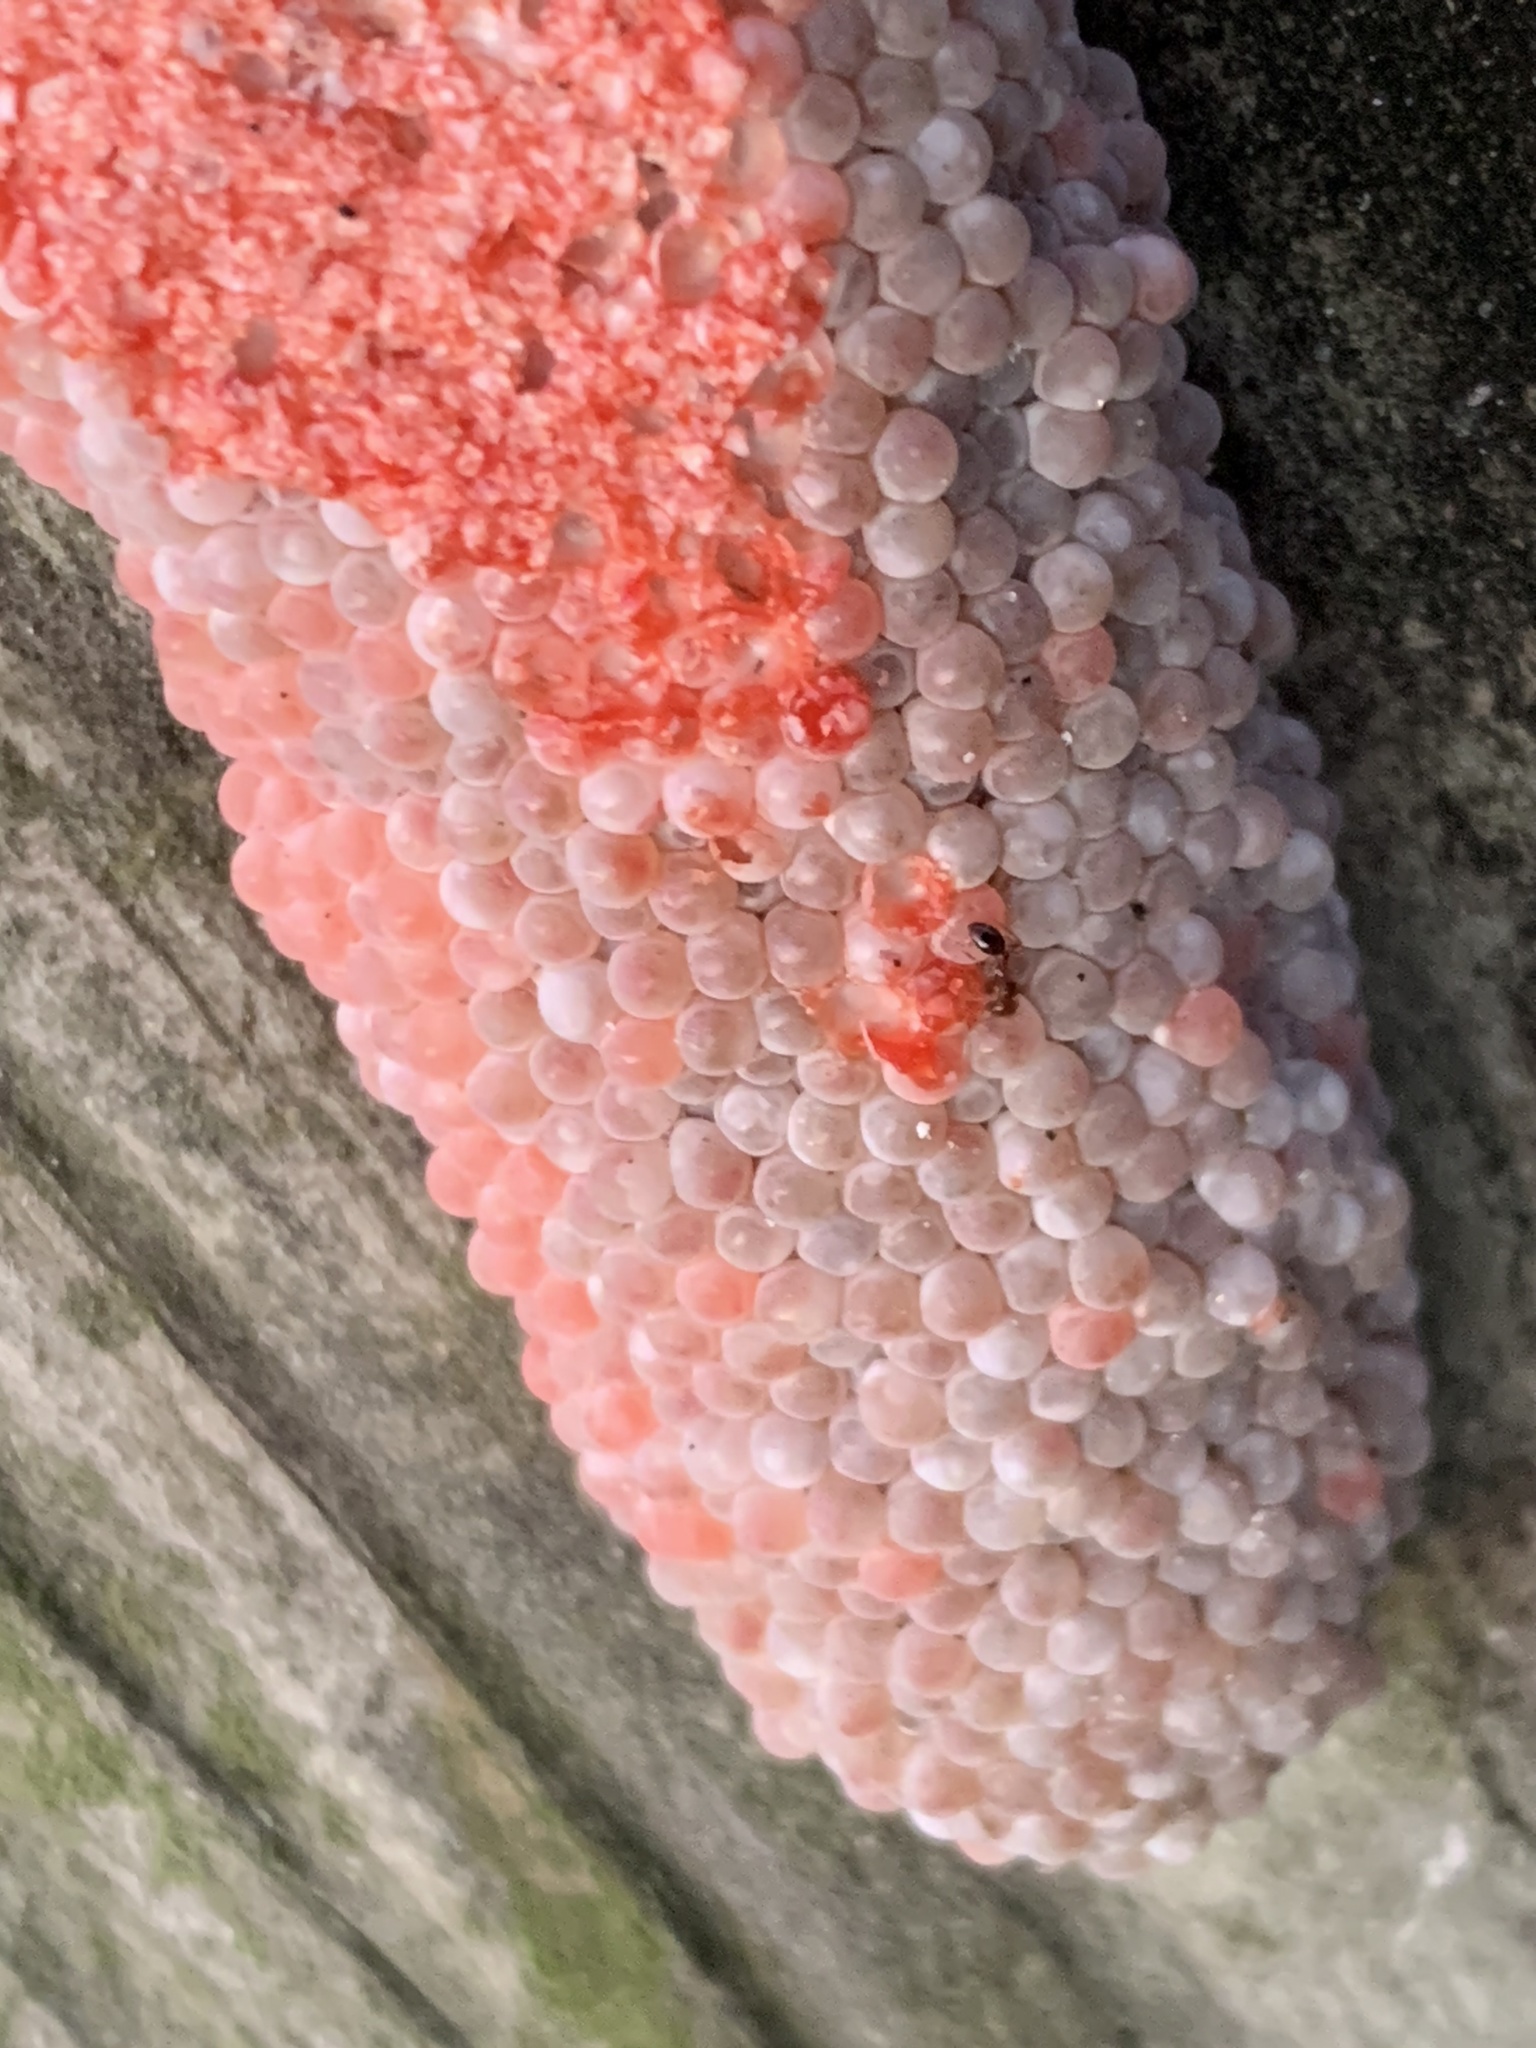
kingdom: Animalia
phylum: Mollusca
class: Gastropoda
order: Architaenioglossa
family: Ampullariidae
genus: Pomacea
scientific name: Pomacea maculata
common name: Giant applesnail
